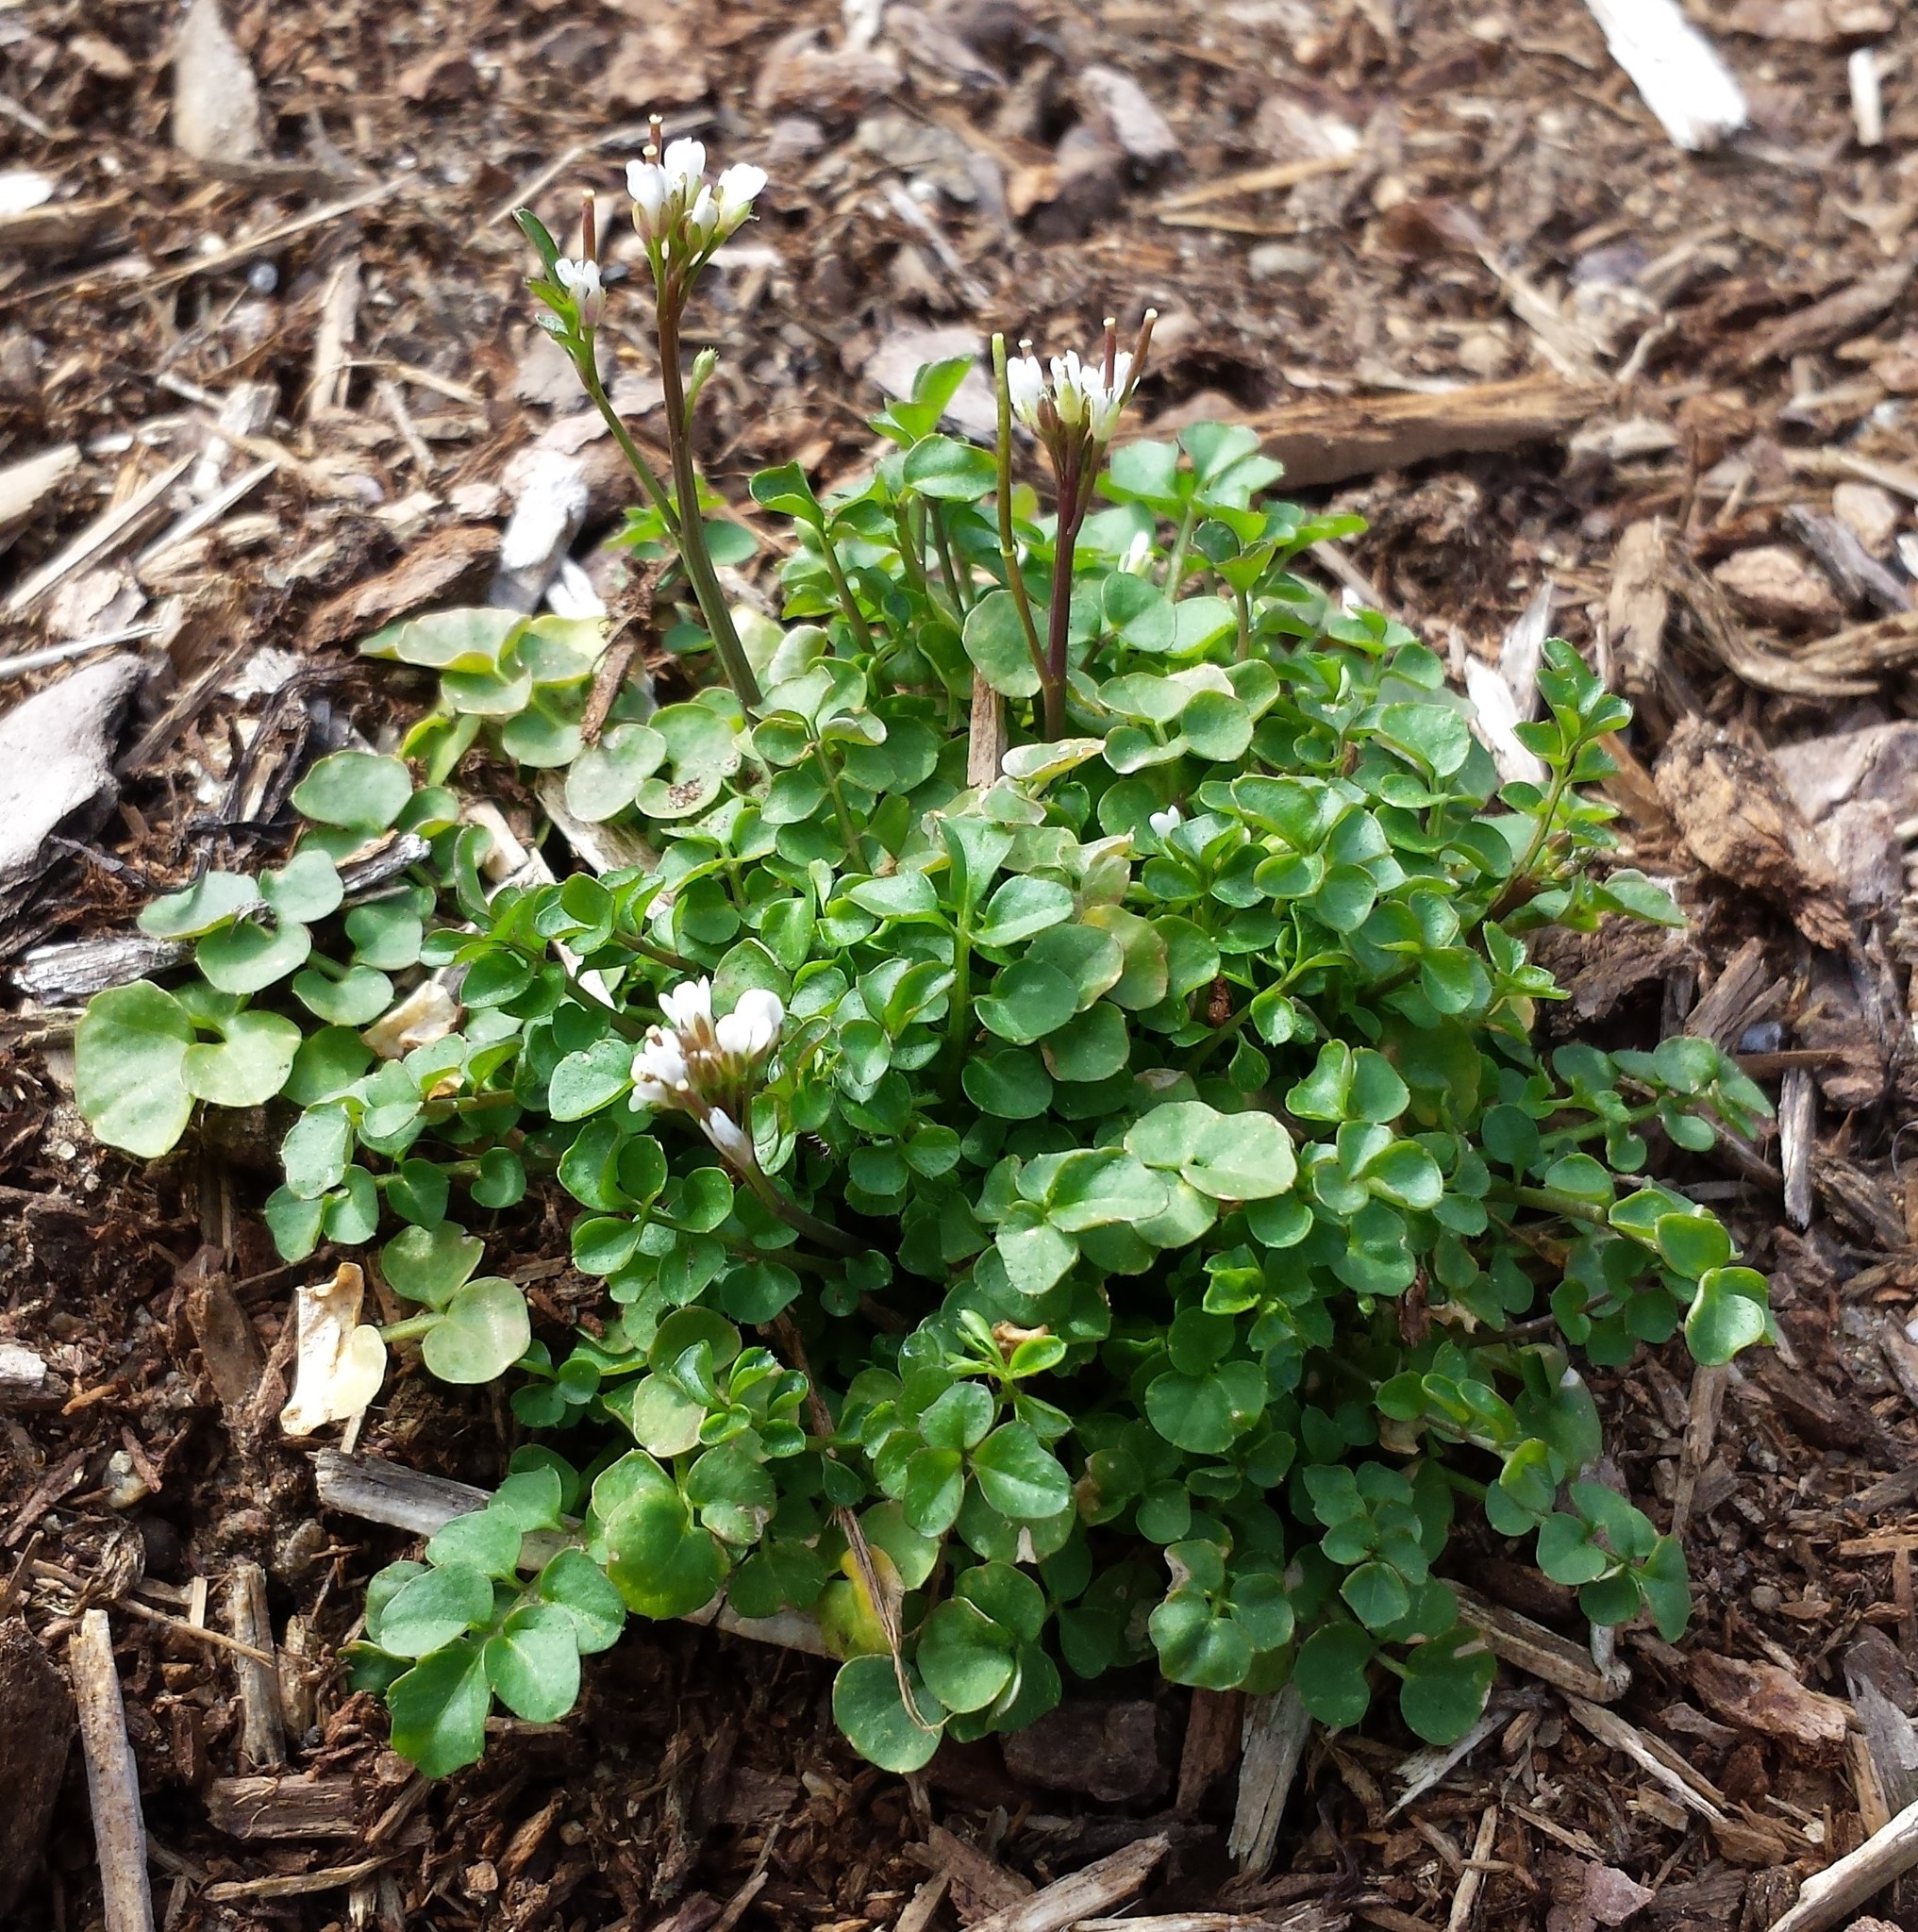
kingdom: Plantae
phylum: Tracheophyta
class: Magnoliopsida
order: Brassicales
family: Brassicaceae
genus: Cardamine
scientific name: Cardamine hirsuta
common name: Hairy bittercress
